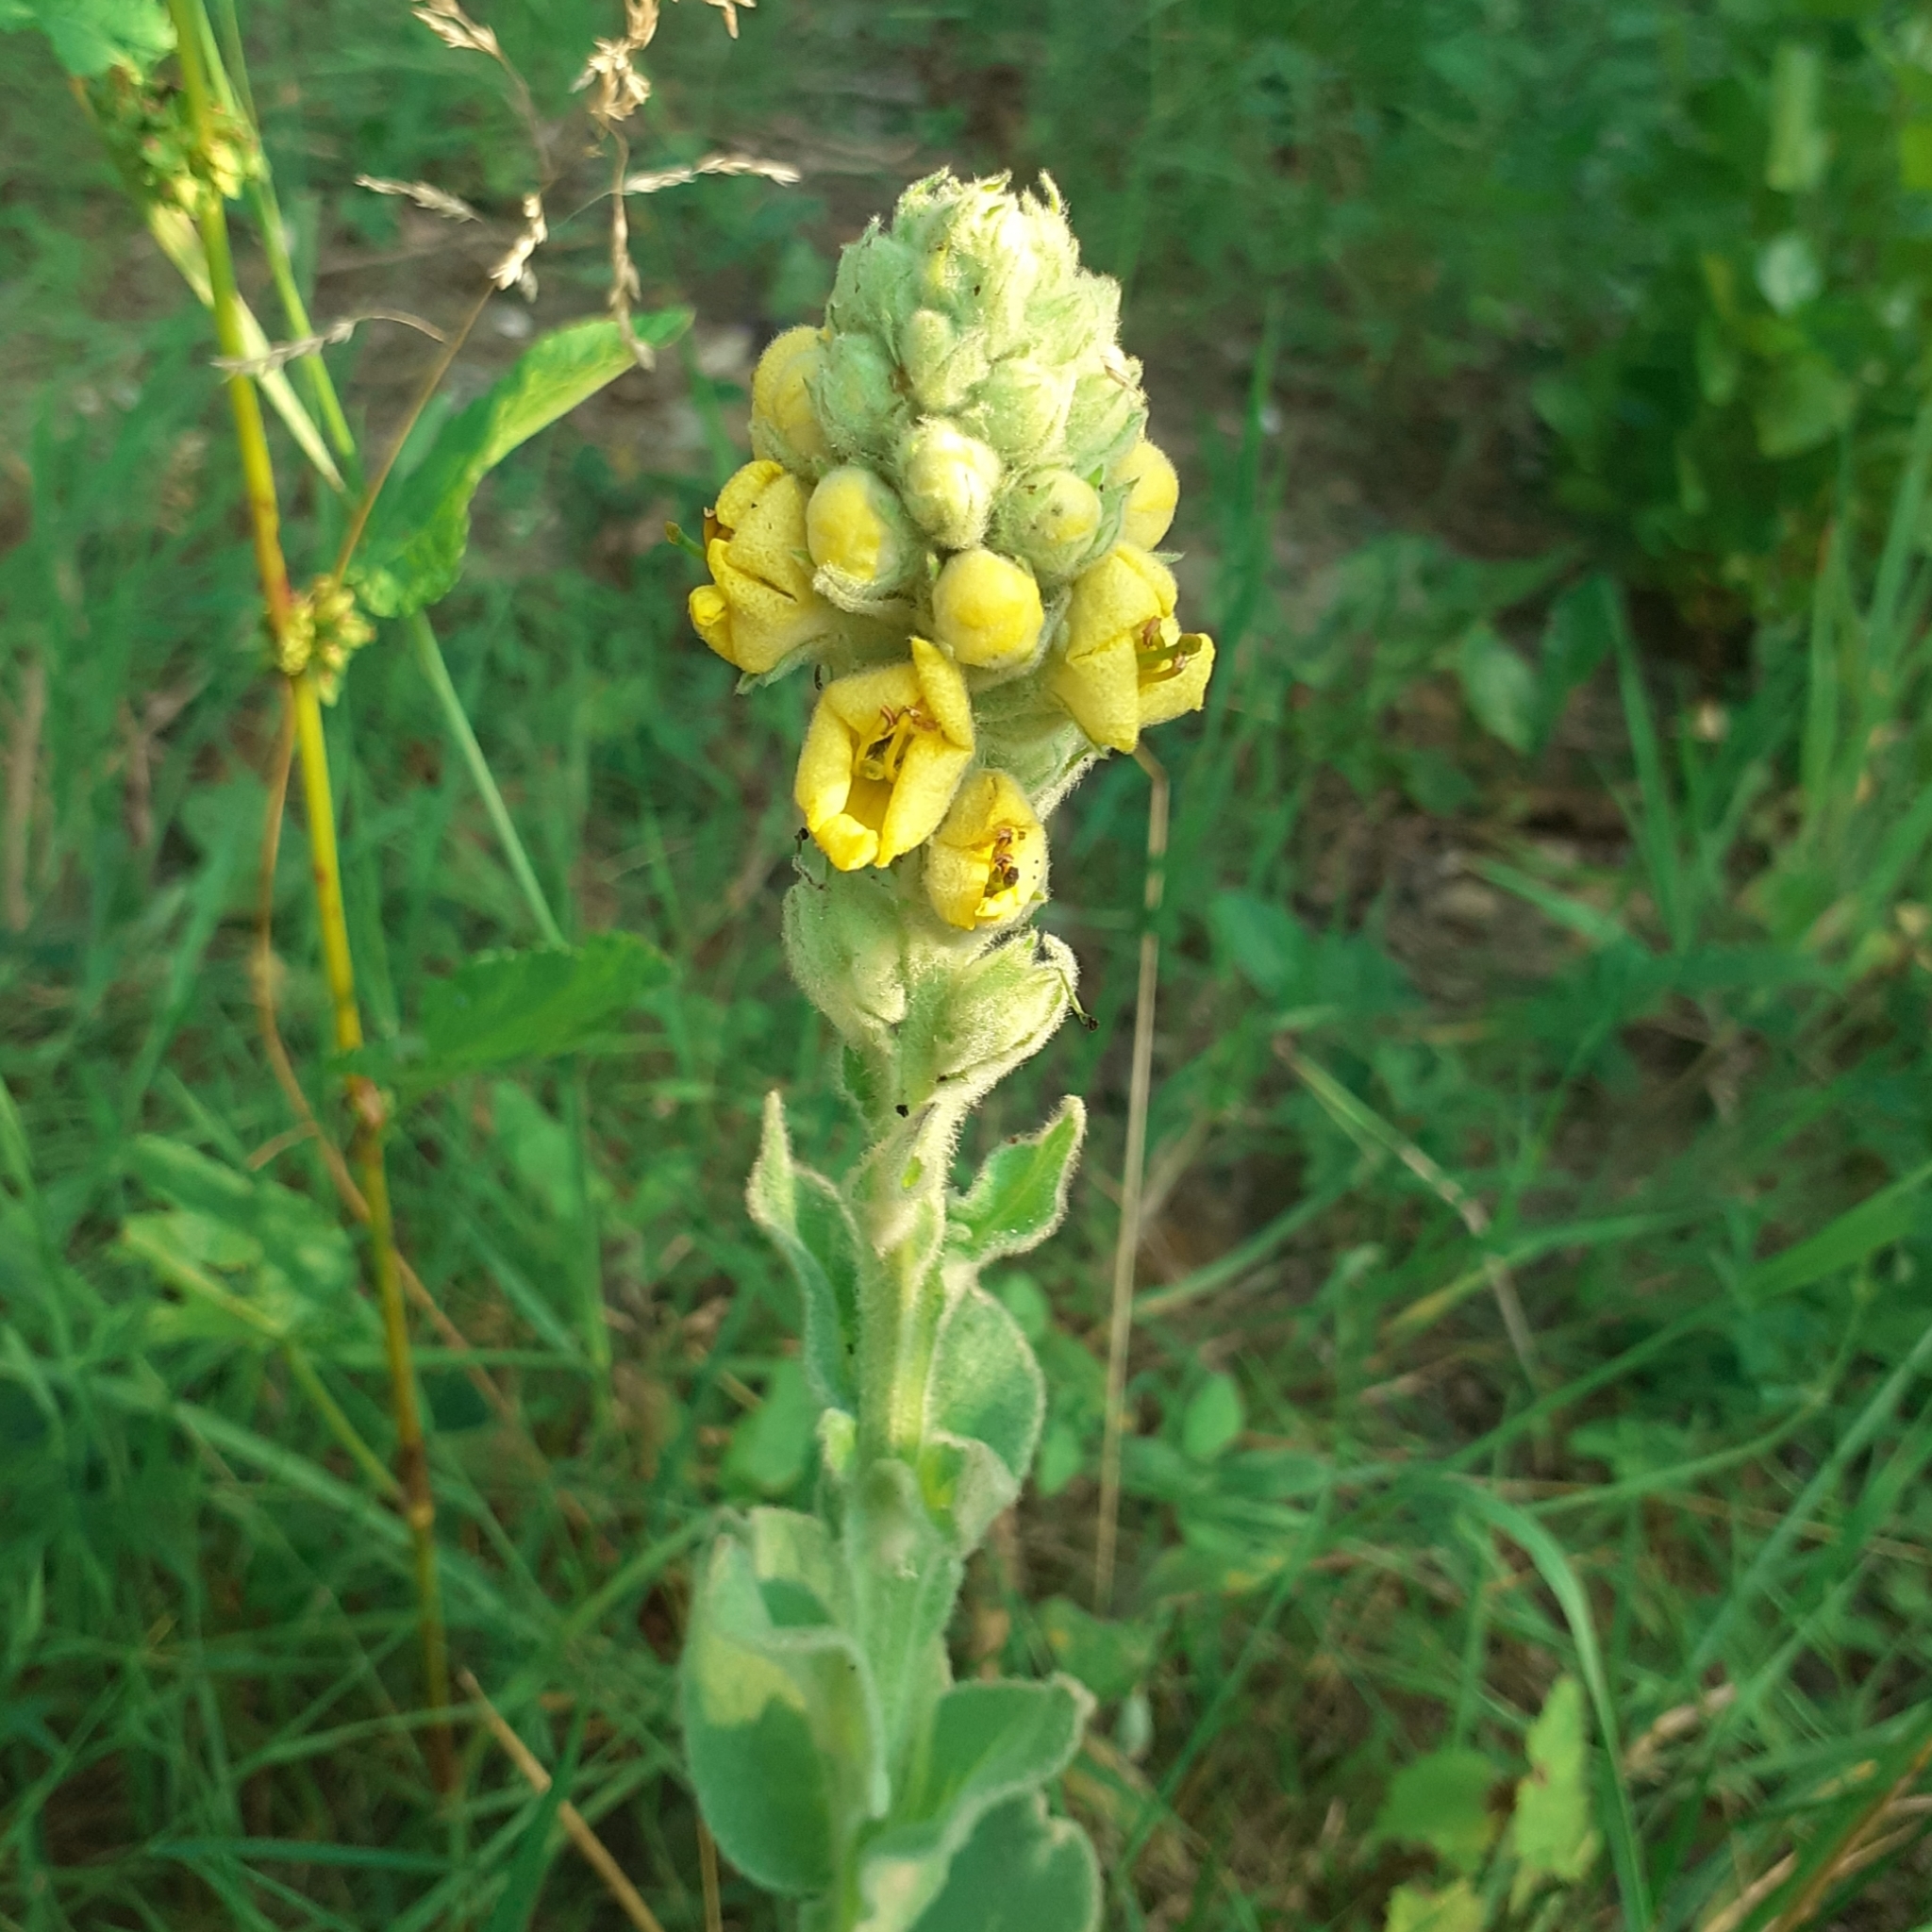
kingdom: Plantae
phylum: Tracheophyta
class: Magnoliopsida
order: Lamiales
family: Scrophulariaceae
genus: Verbascum
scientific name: Verbascum thapsus
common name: Common mullein
